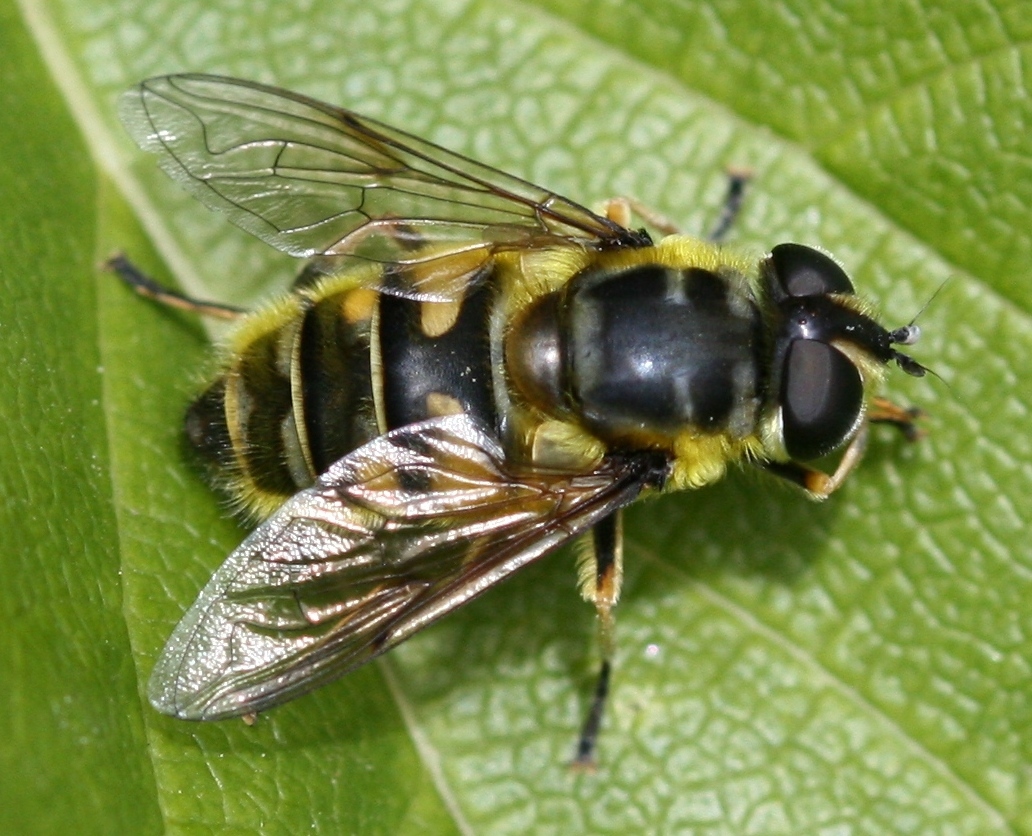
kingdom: Animalia
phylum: Arthropoda
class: Insecta
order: Diptera
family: Syrphidae
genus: Myathropa
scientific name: Myathropa florea
